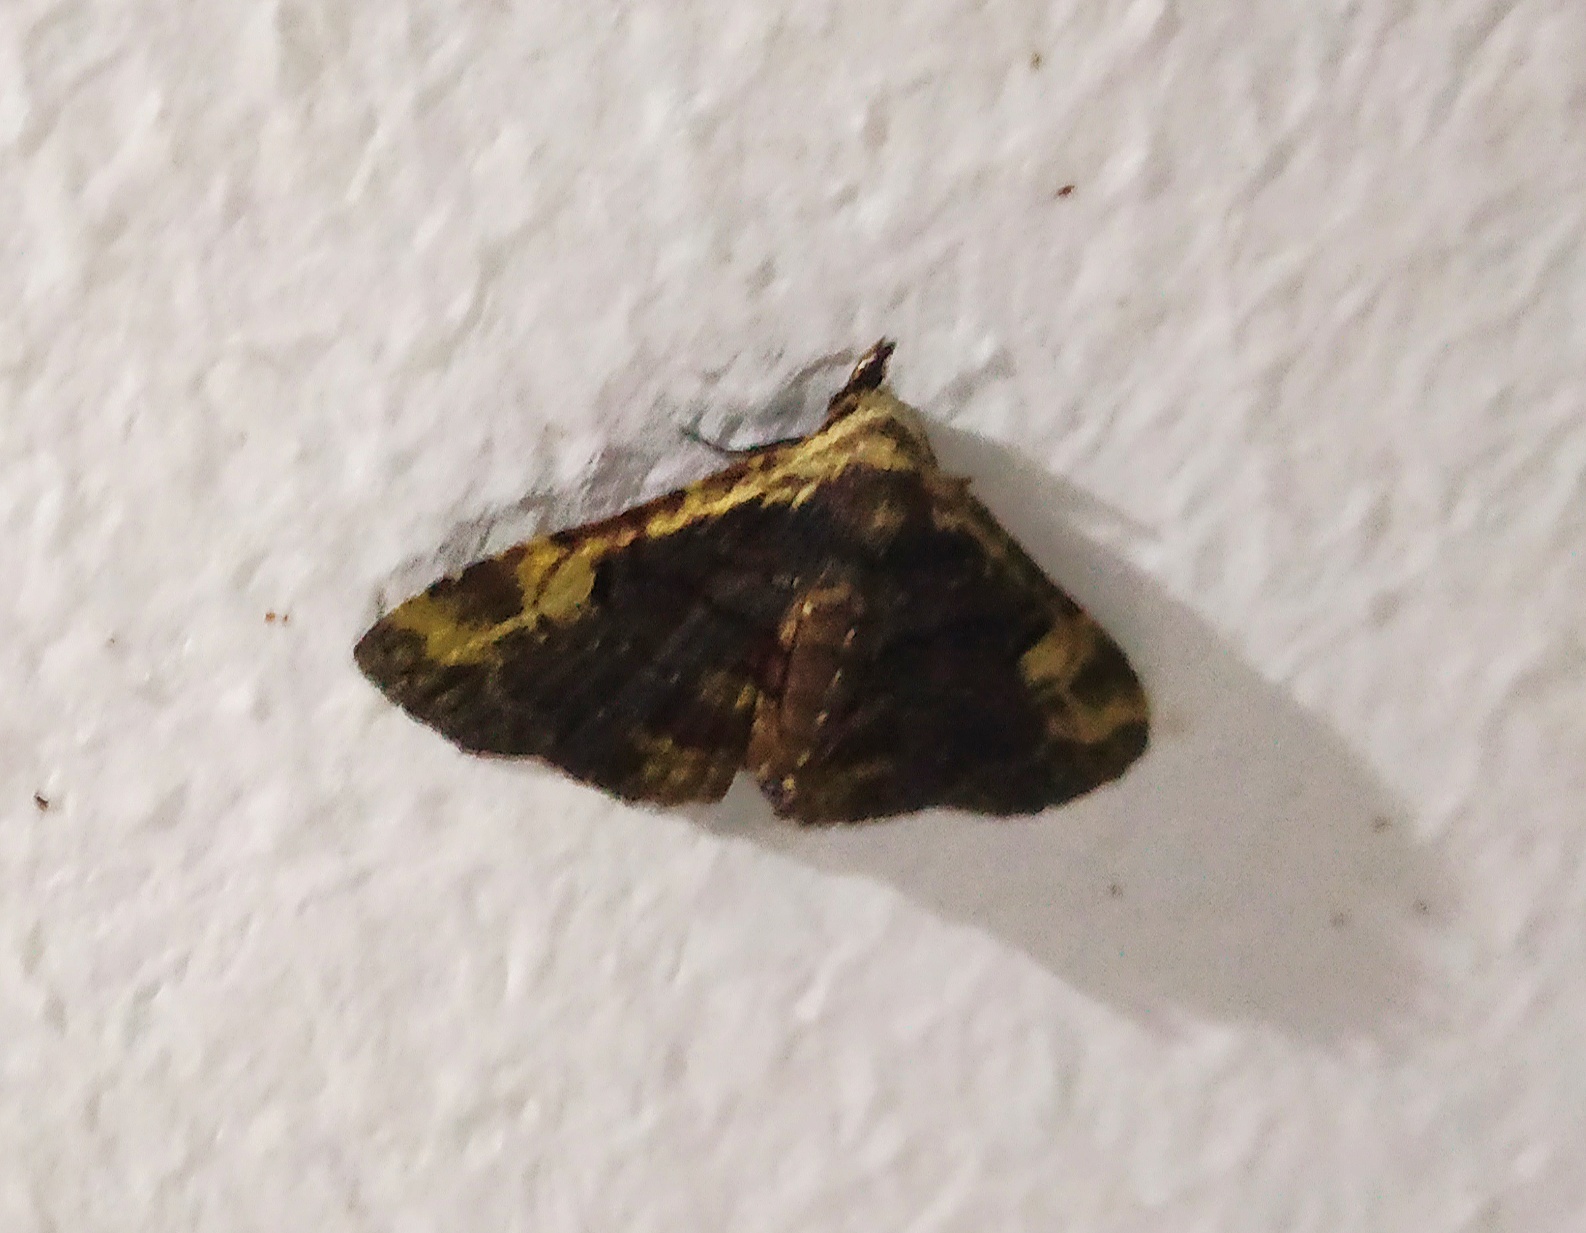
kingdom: Animalia
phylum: Arthropoda
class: Insecta
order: Lepidoptera
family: Erebidae
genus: Maguda
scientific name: Maguda suffusa
